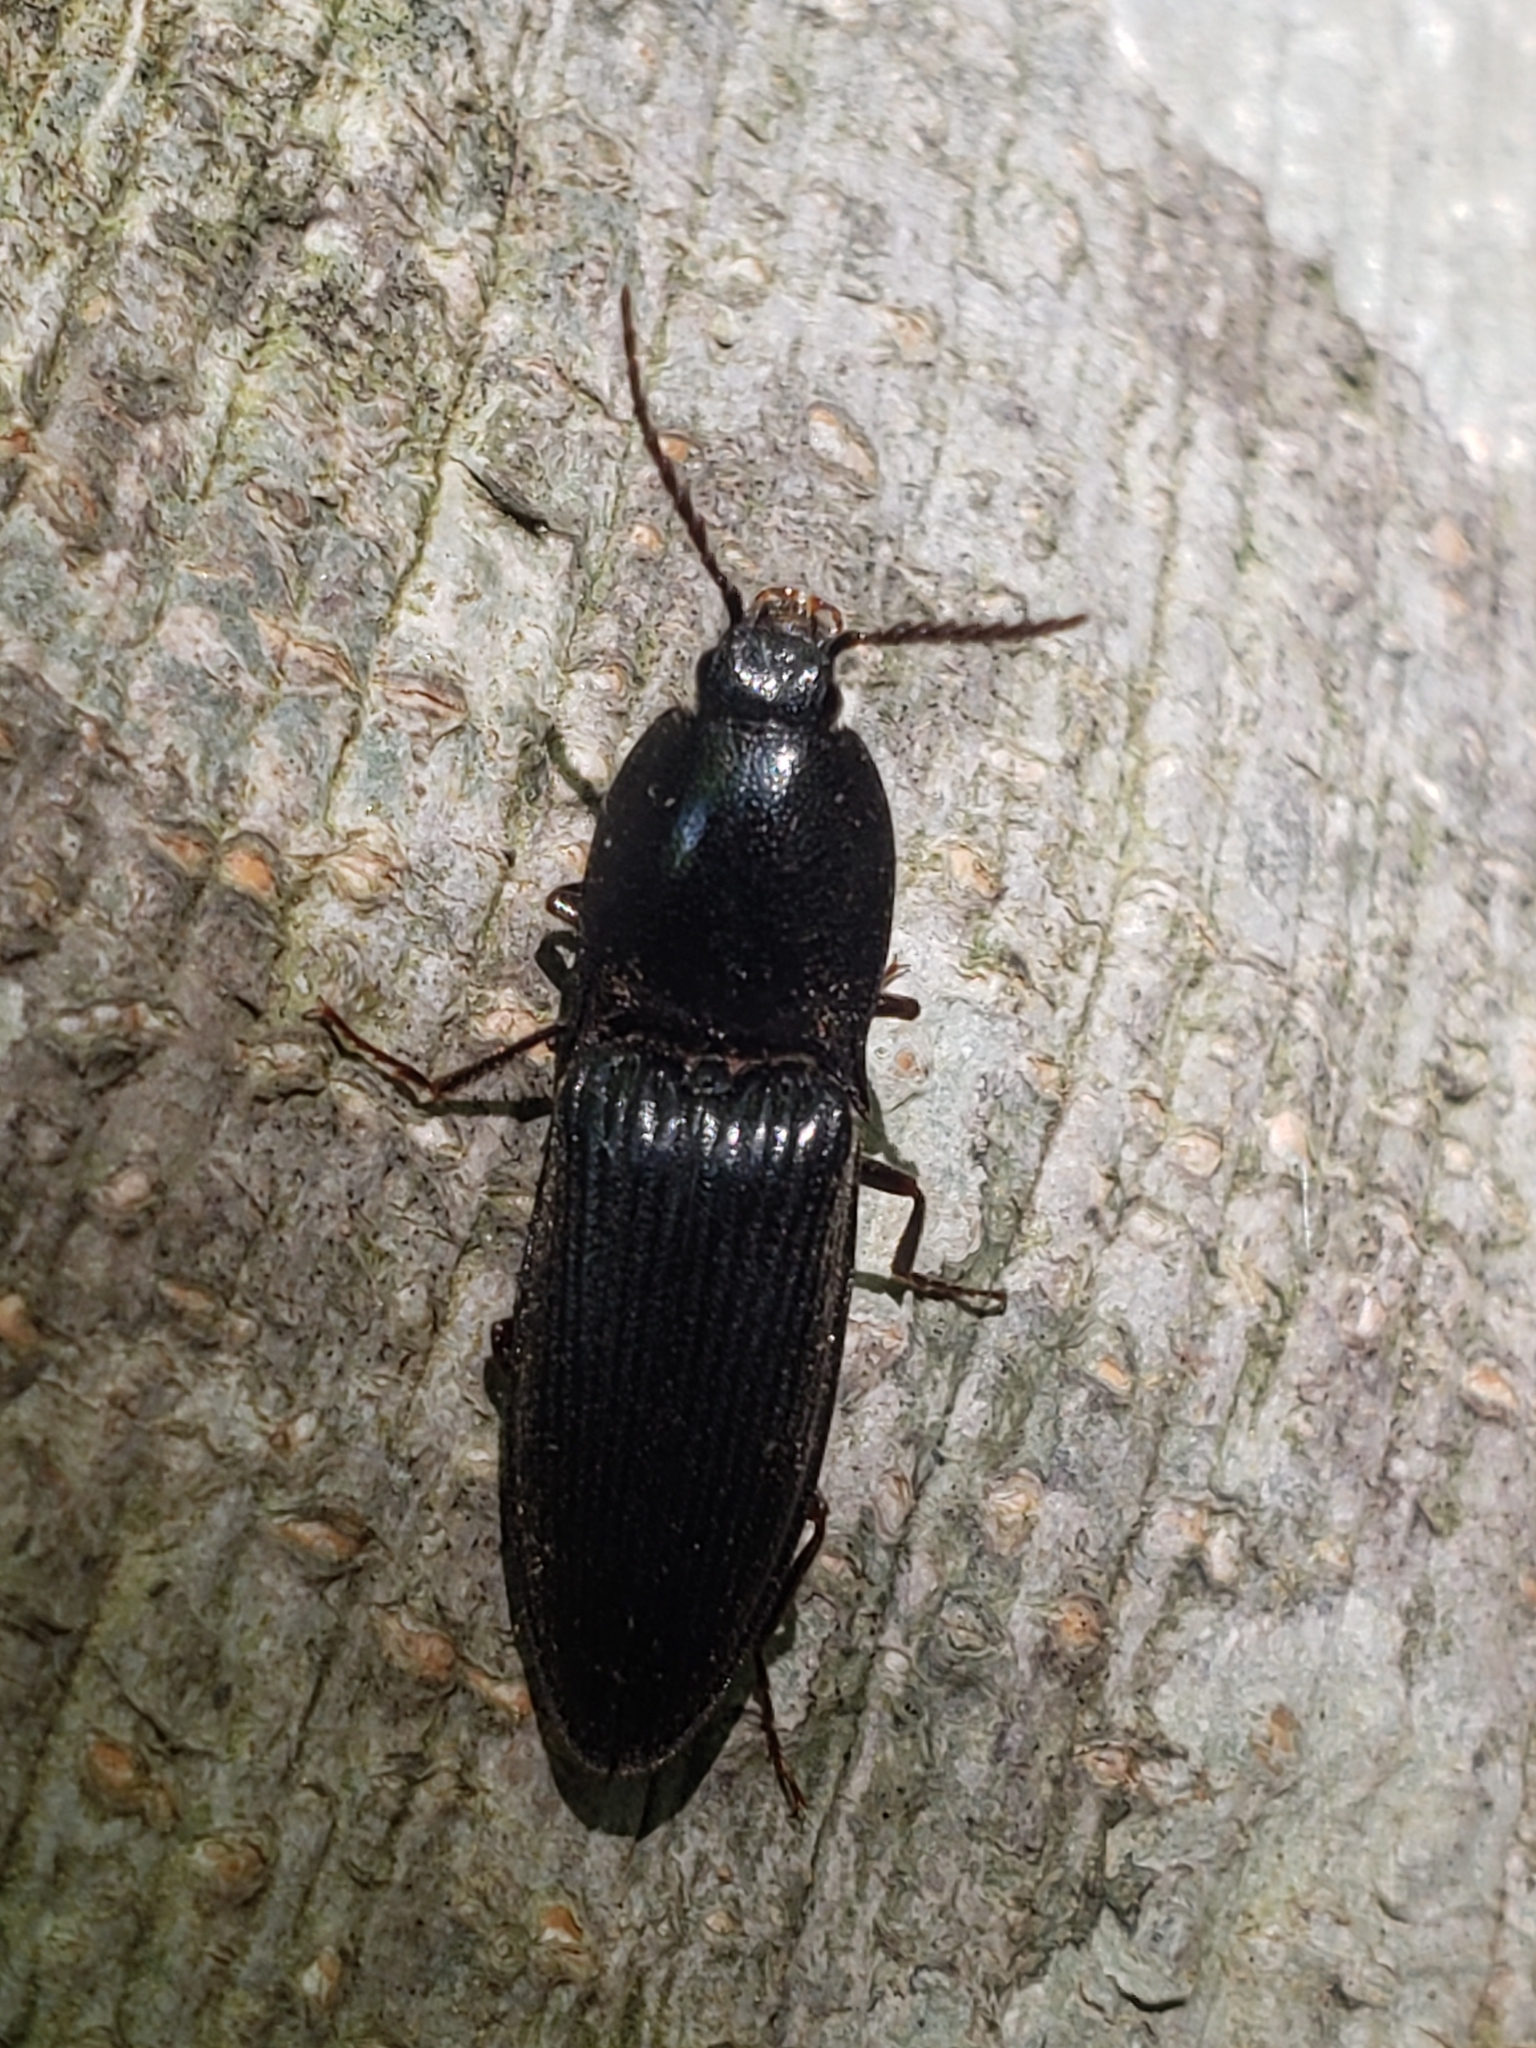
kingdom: Animalia
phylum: Arthropoda
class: Insecta
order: Coleoptera
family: Elateridae
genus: Neopristilophus
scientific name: Neopristilophus
